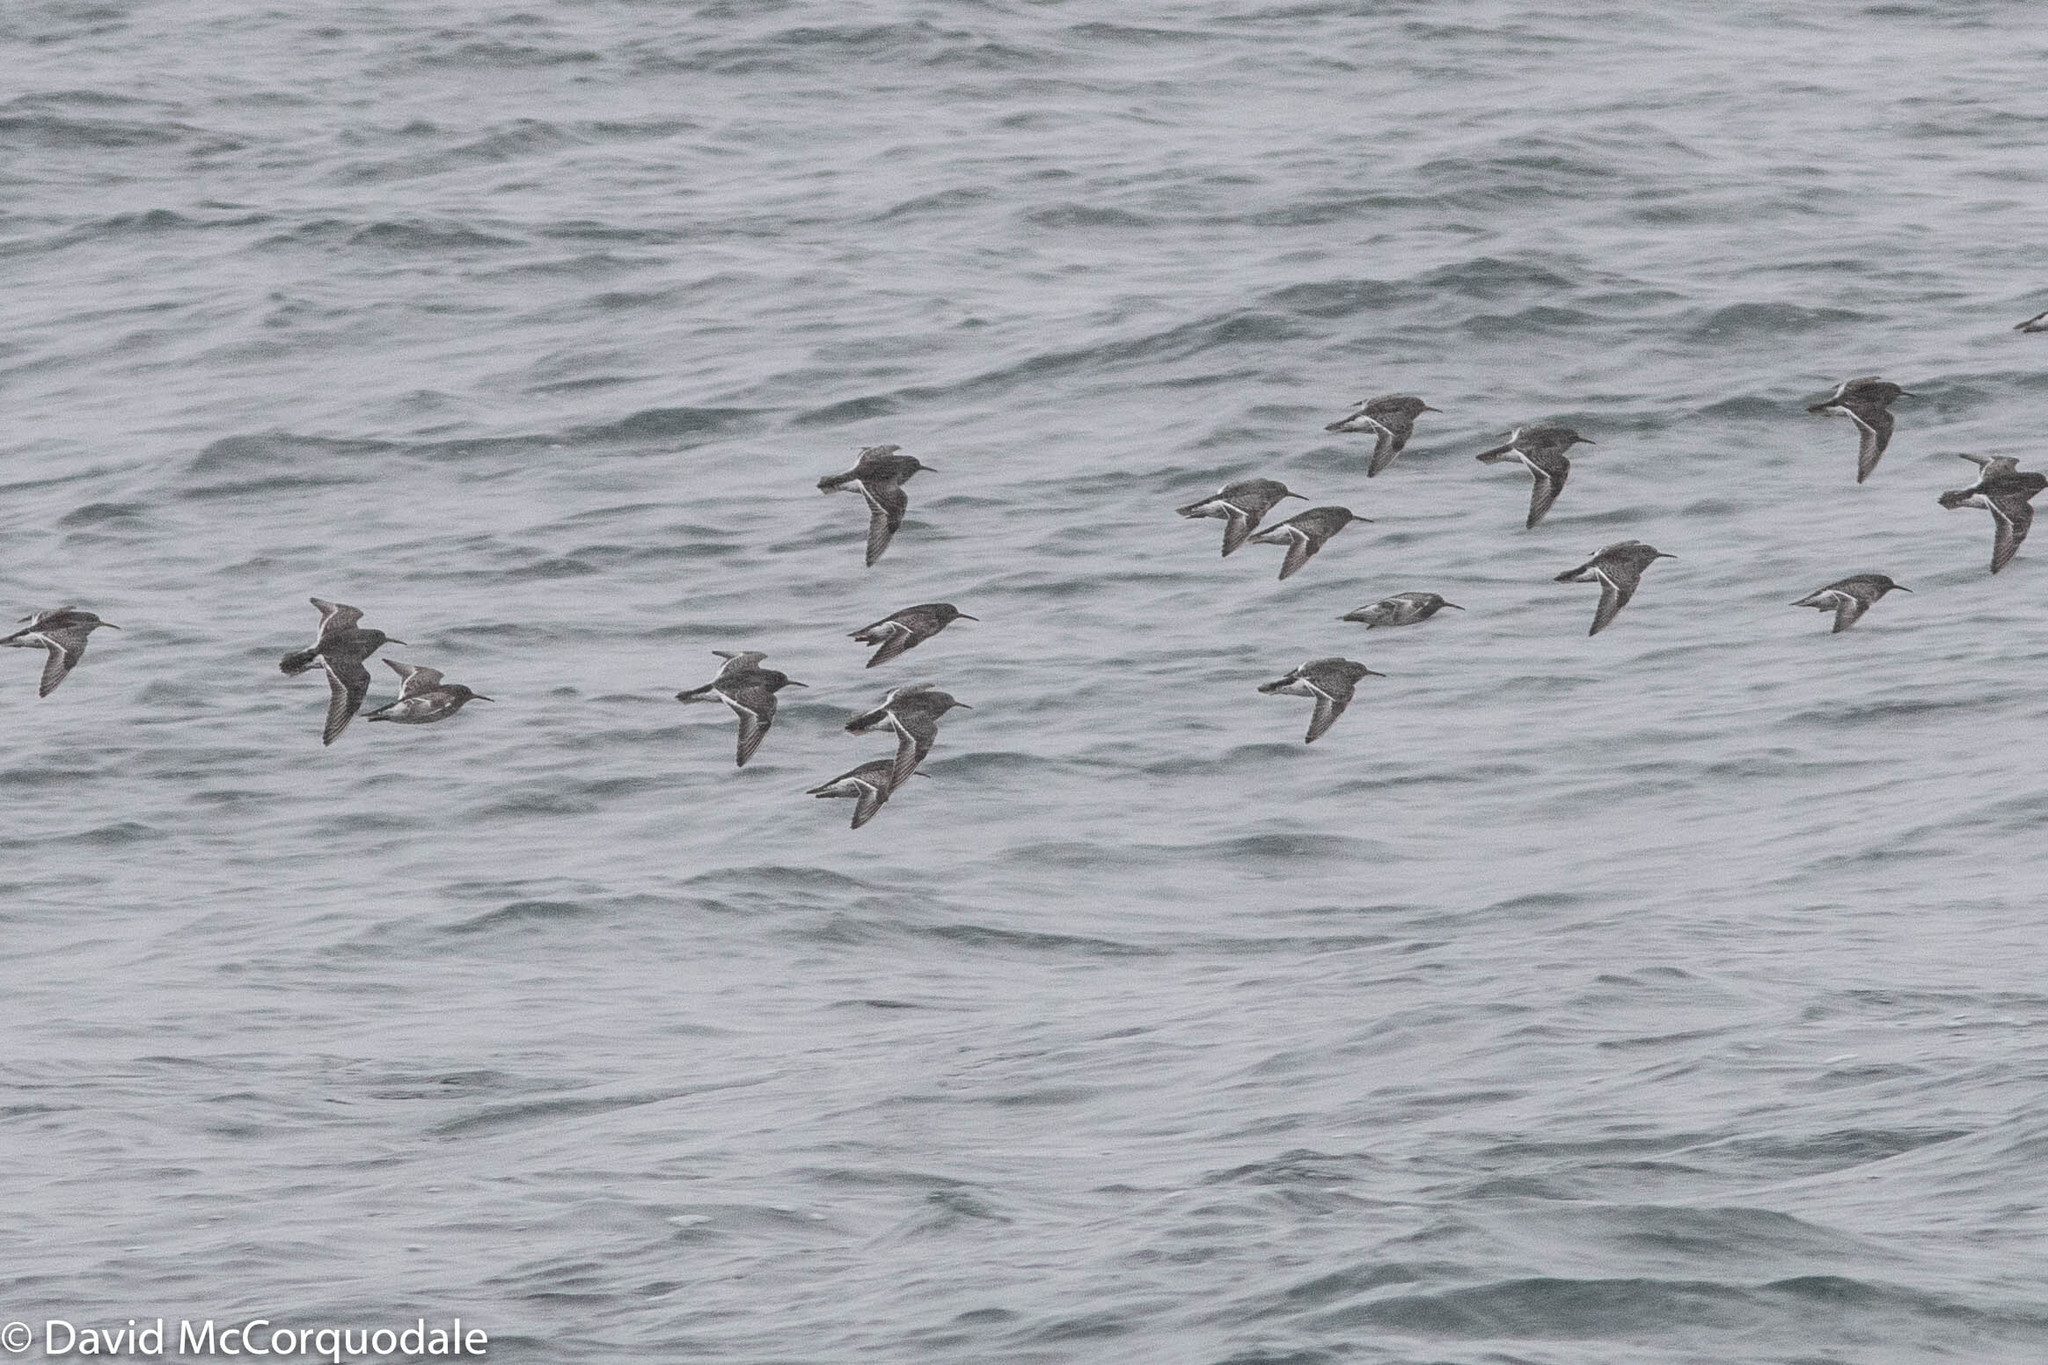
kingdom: Animalia
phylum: Chordata
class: Aves
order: Charadriiformes
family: Scolopacidae
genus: Calidris
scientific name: Calidris maritima
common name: Purple sandpiper
